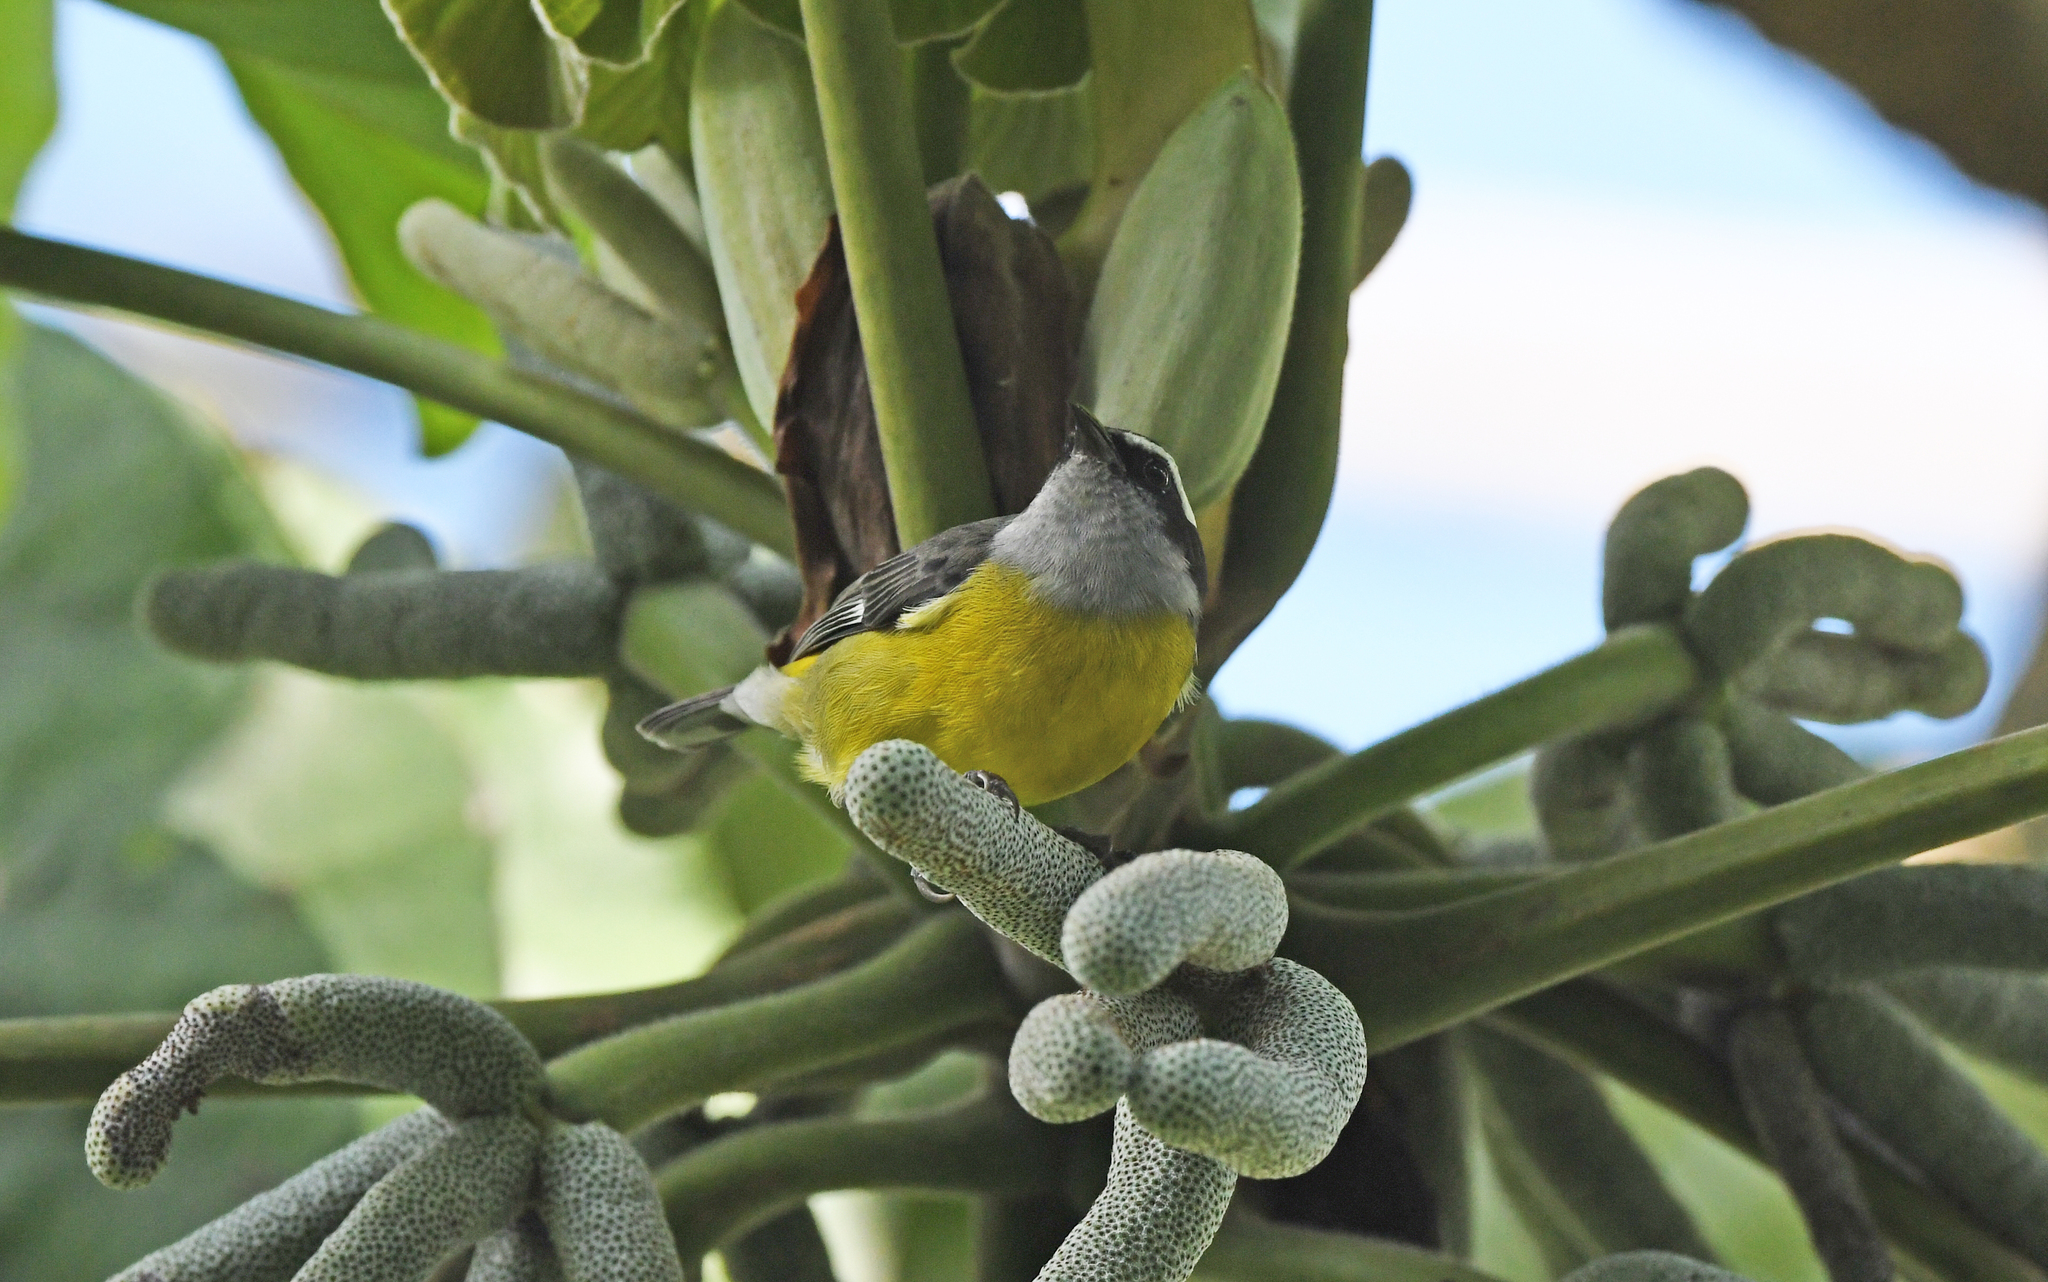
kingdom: Animalia
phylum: Chordata
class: Aves
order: Passeriformes
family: Thraupidae
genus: Coereba
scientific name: Coereba flaveola
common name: Bananaquit
